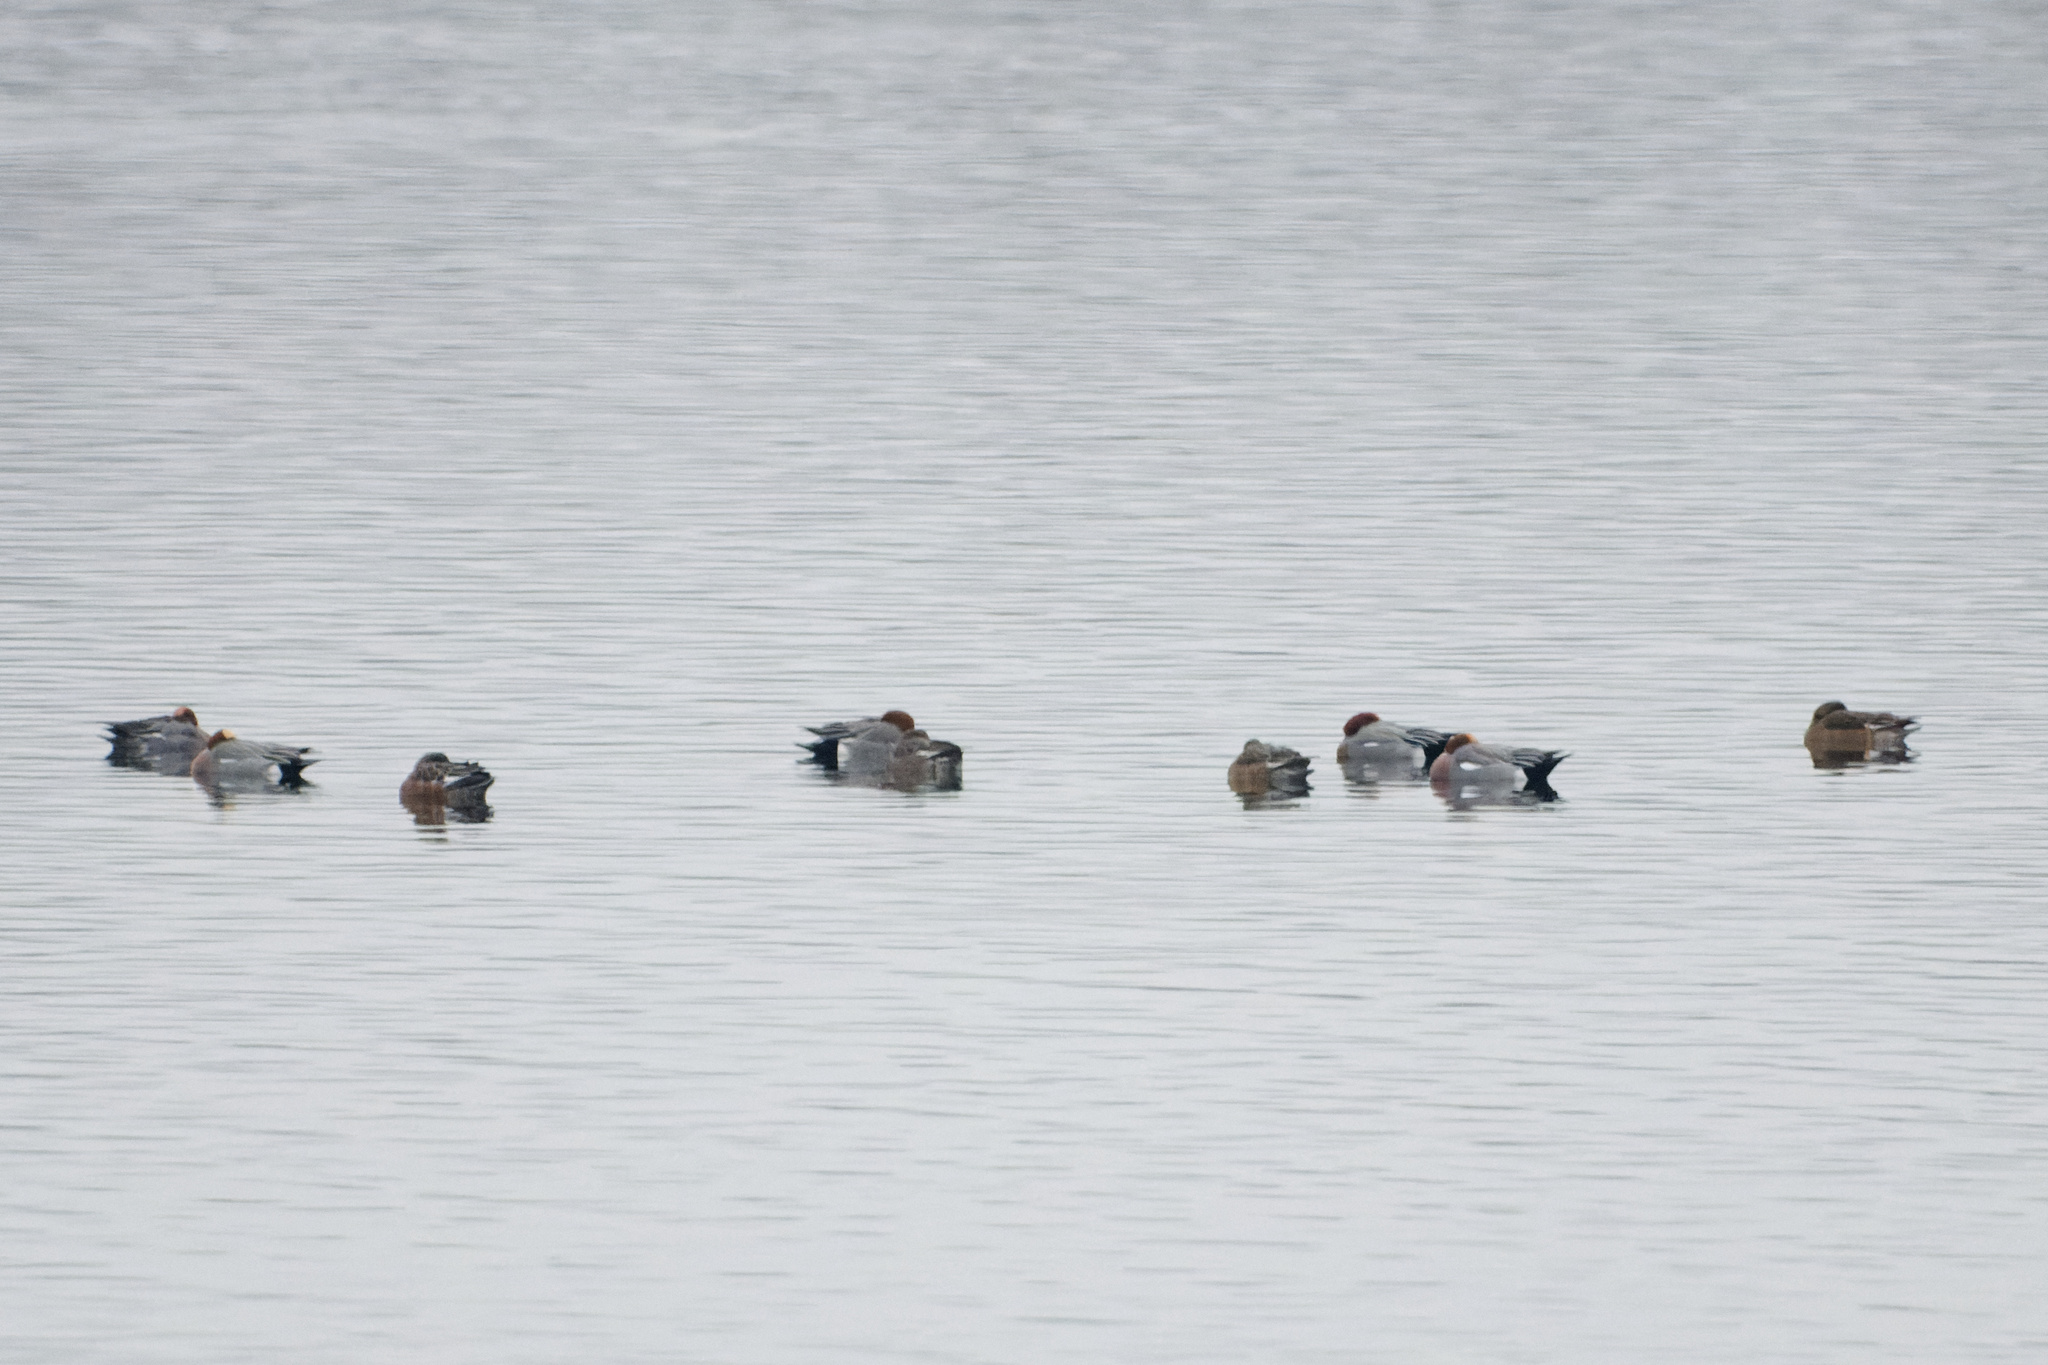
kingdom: Animalia
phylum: Chordata
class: Aves
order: Anseriformes
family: Anatidae
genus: Mareca
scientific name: Mareca penelope
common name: Eurasian wigeon
